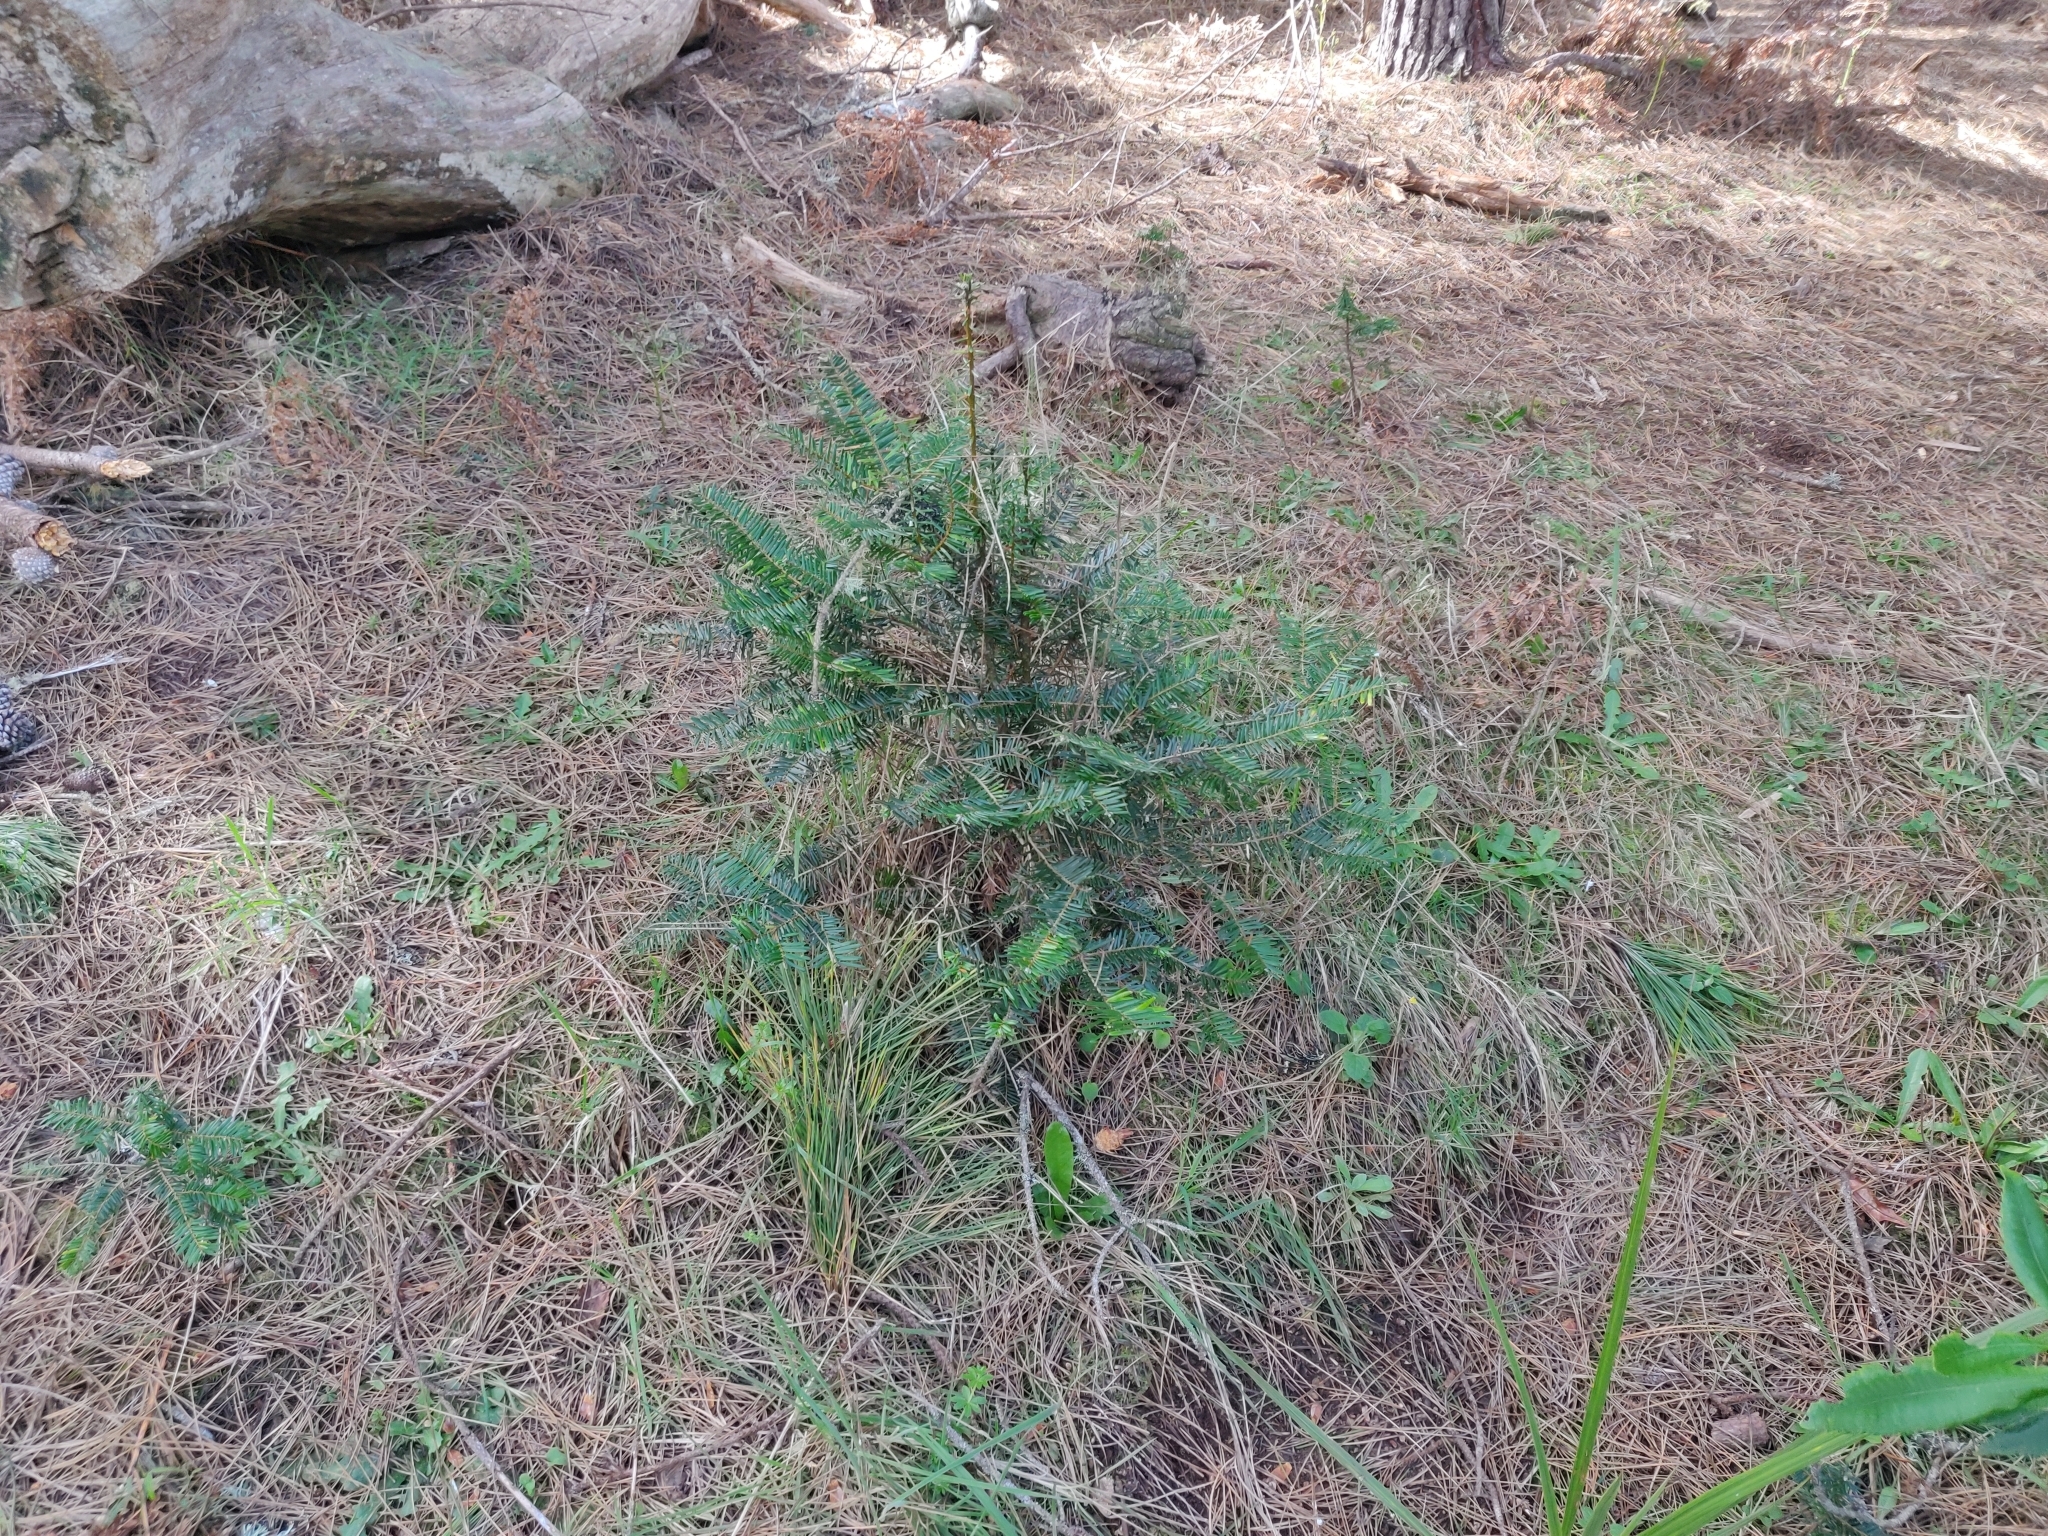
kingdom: Plantae
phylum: Tracheophyta
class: Pinopsida
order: Pinales
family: Pinaceae
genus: Abies
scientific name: Abies grandis
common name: Giant fir
